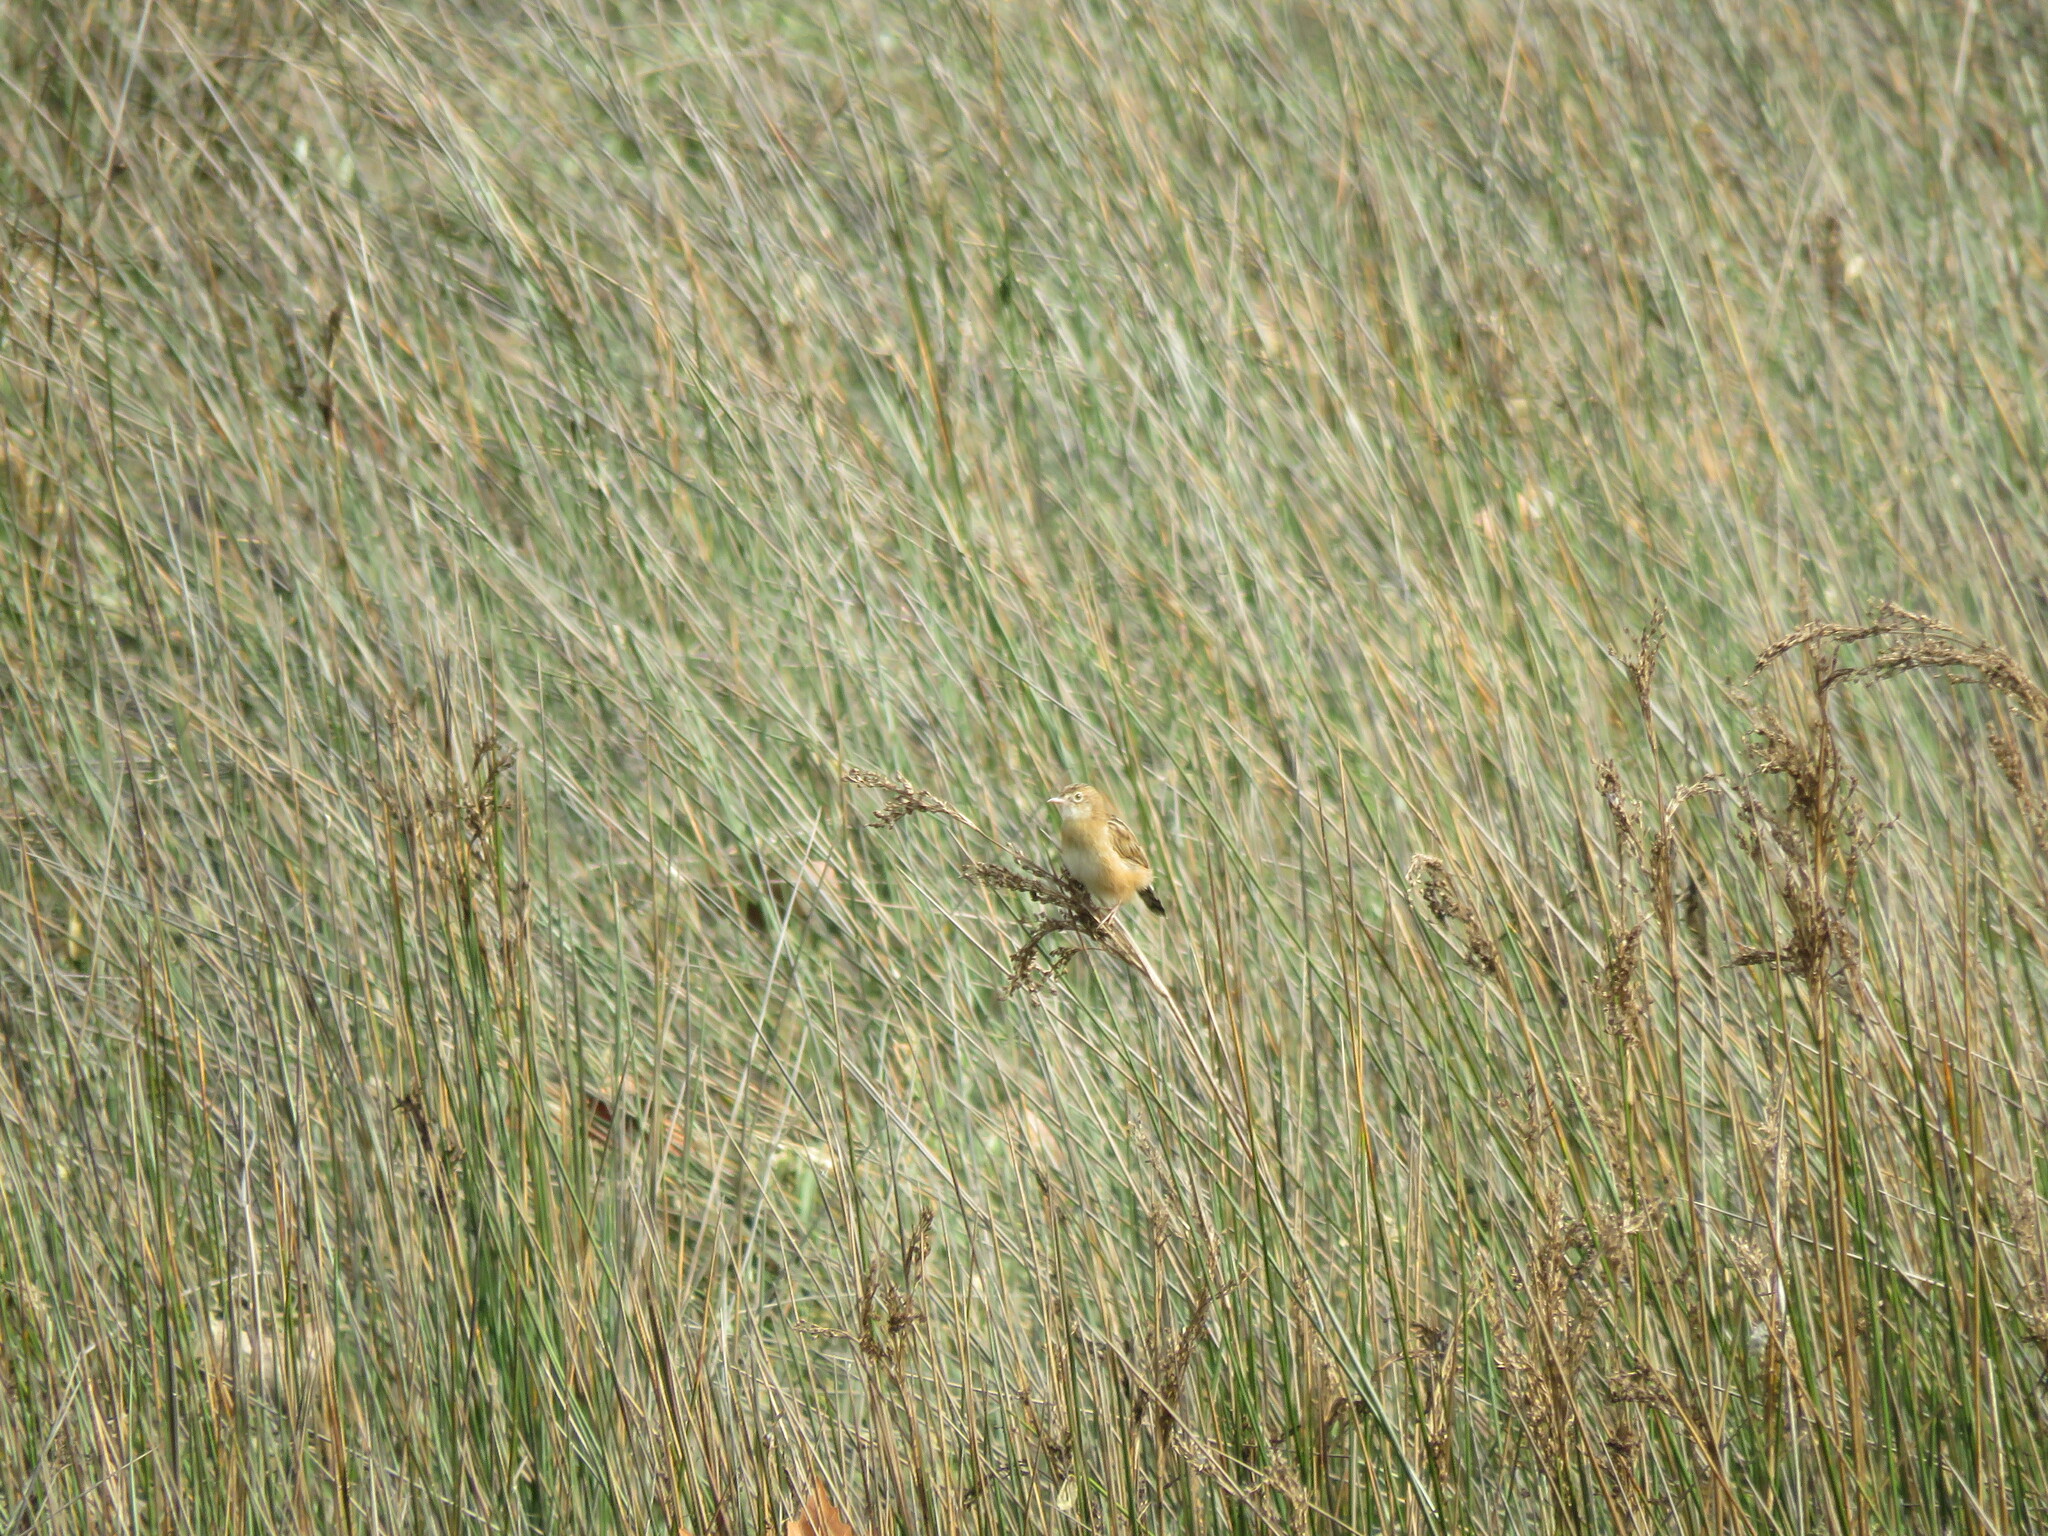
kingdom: Animalia
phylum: Chordata
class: Aves
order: Passeriformes
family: Cisticolidae
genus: Cisticola
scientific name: Cisticola juncidis
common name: Zitting cisticola
